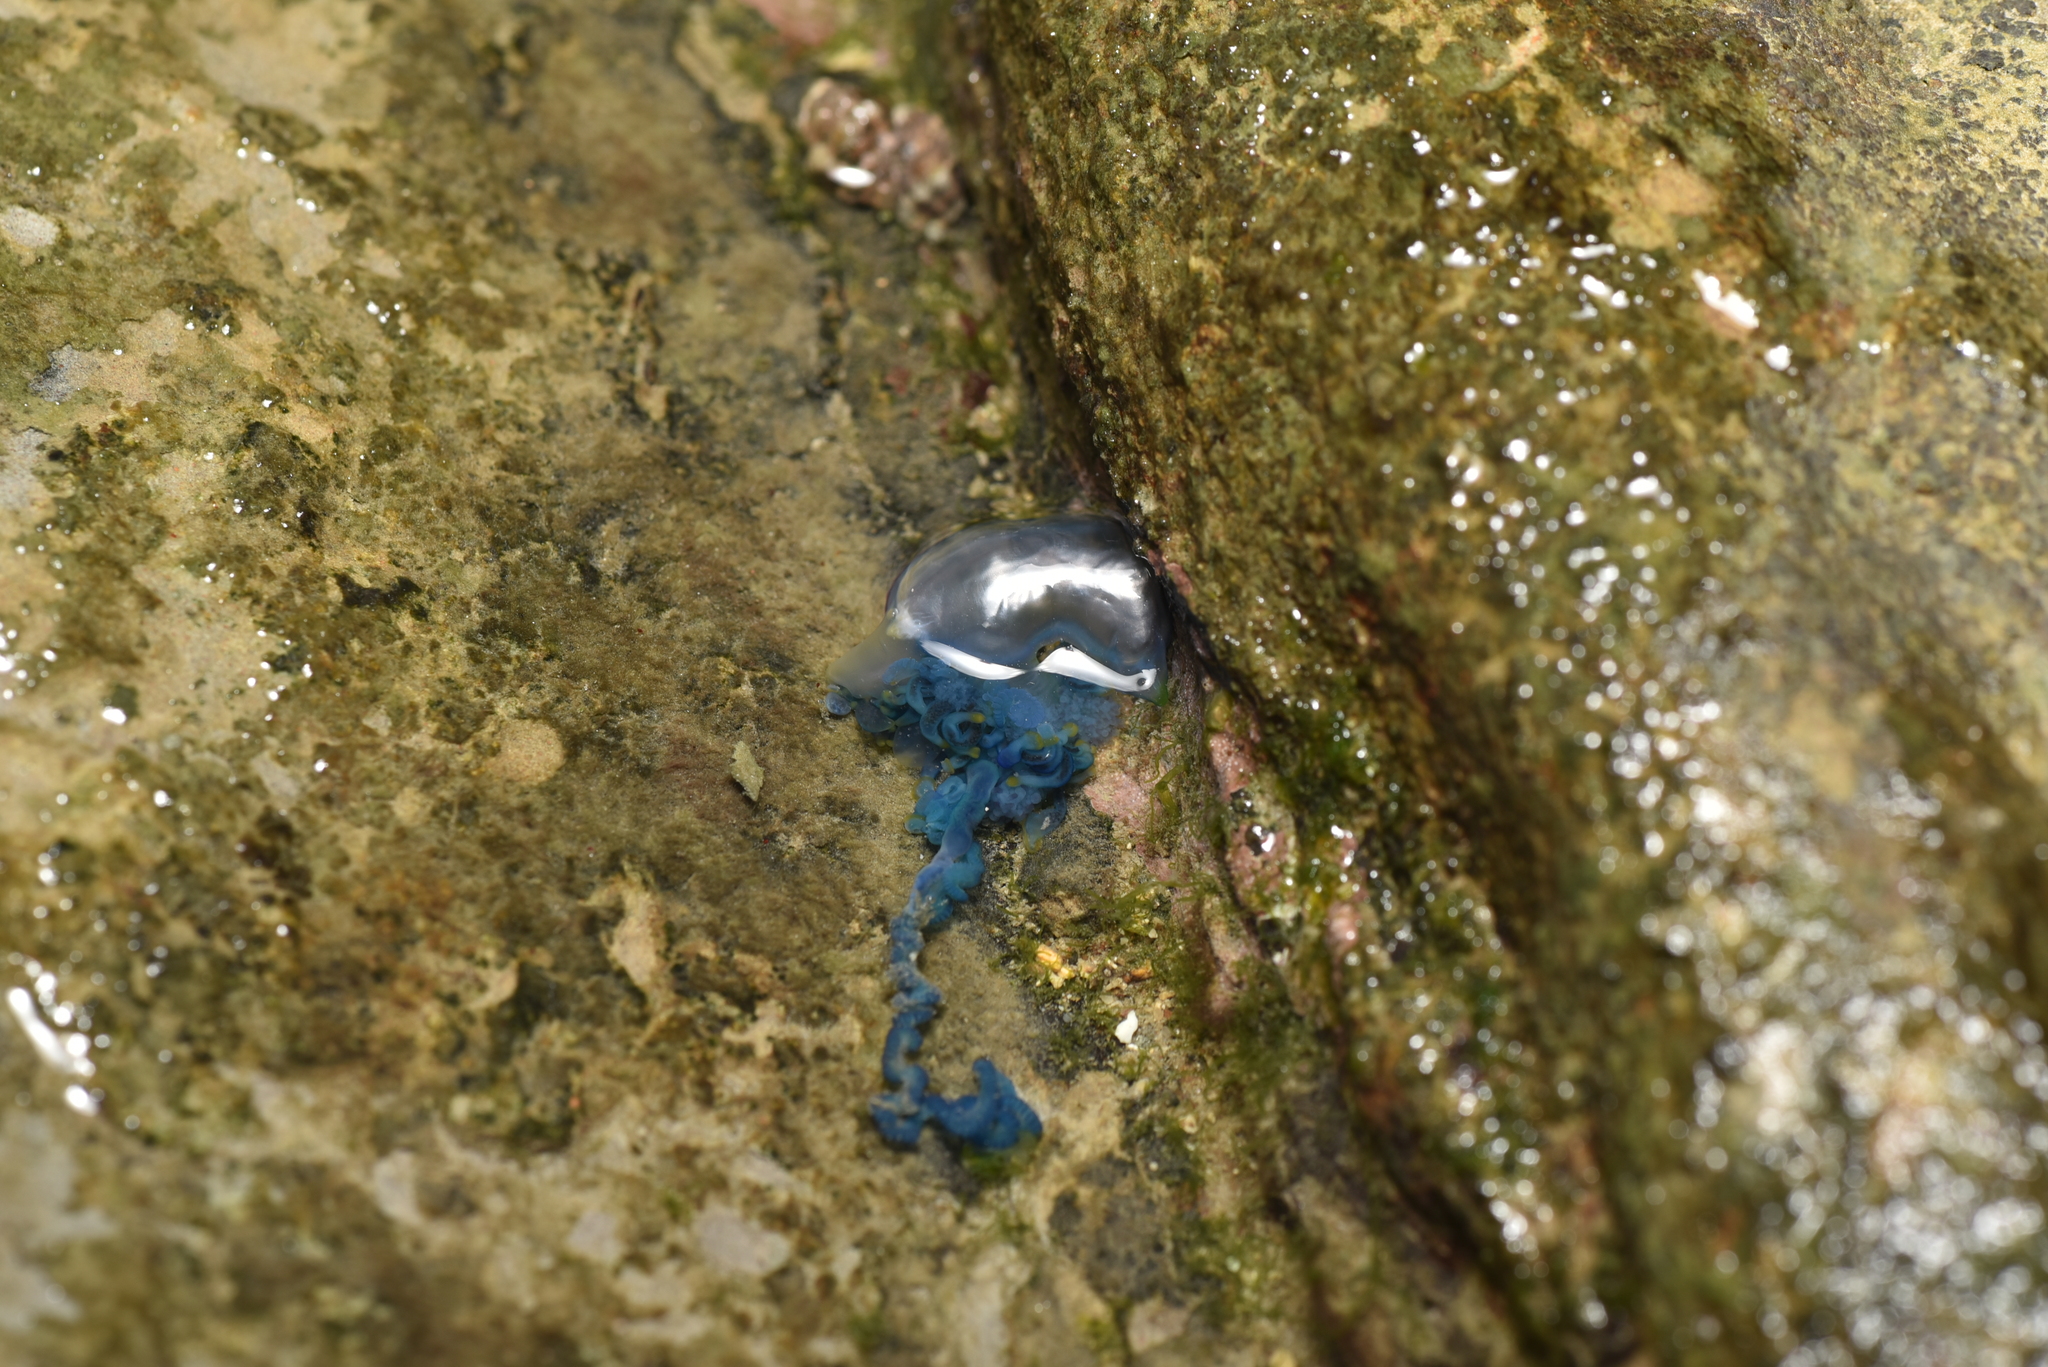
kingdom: Animalia
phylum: Cnidaria
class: Hydrozoa
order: Siphonophorae
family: Physaliidae
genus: Physalia
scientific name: Physalia physalis
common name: Portuguese man-of-war
